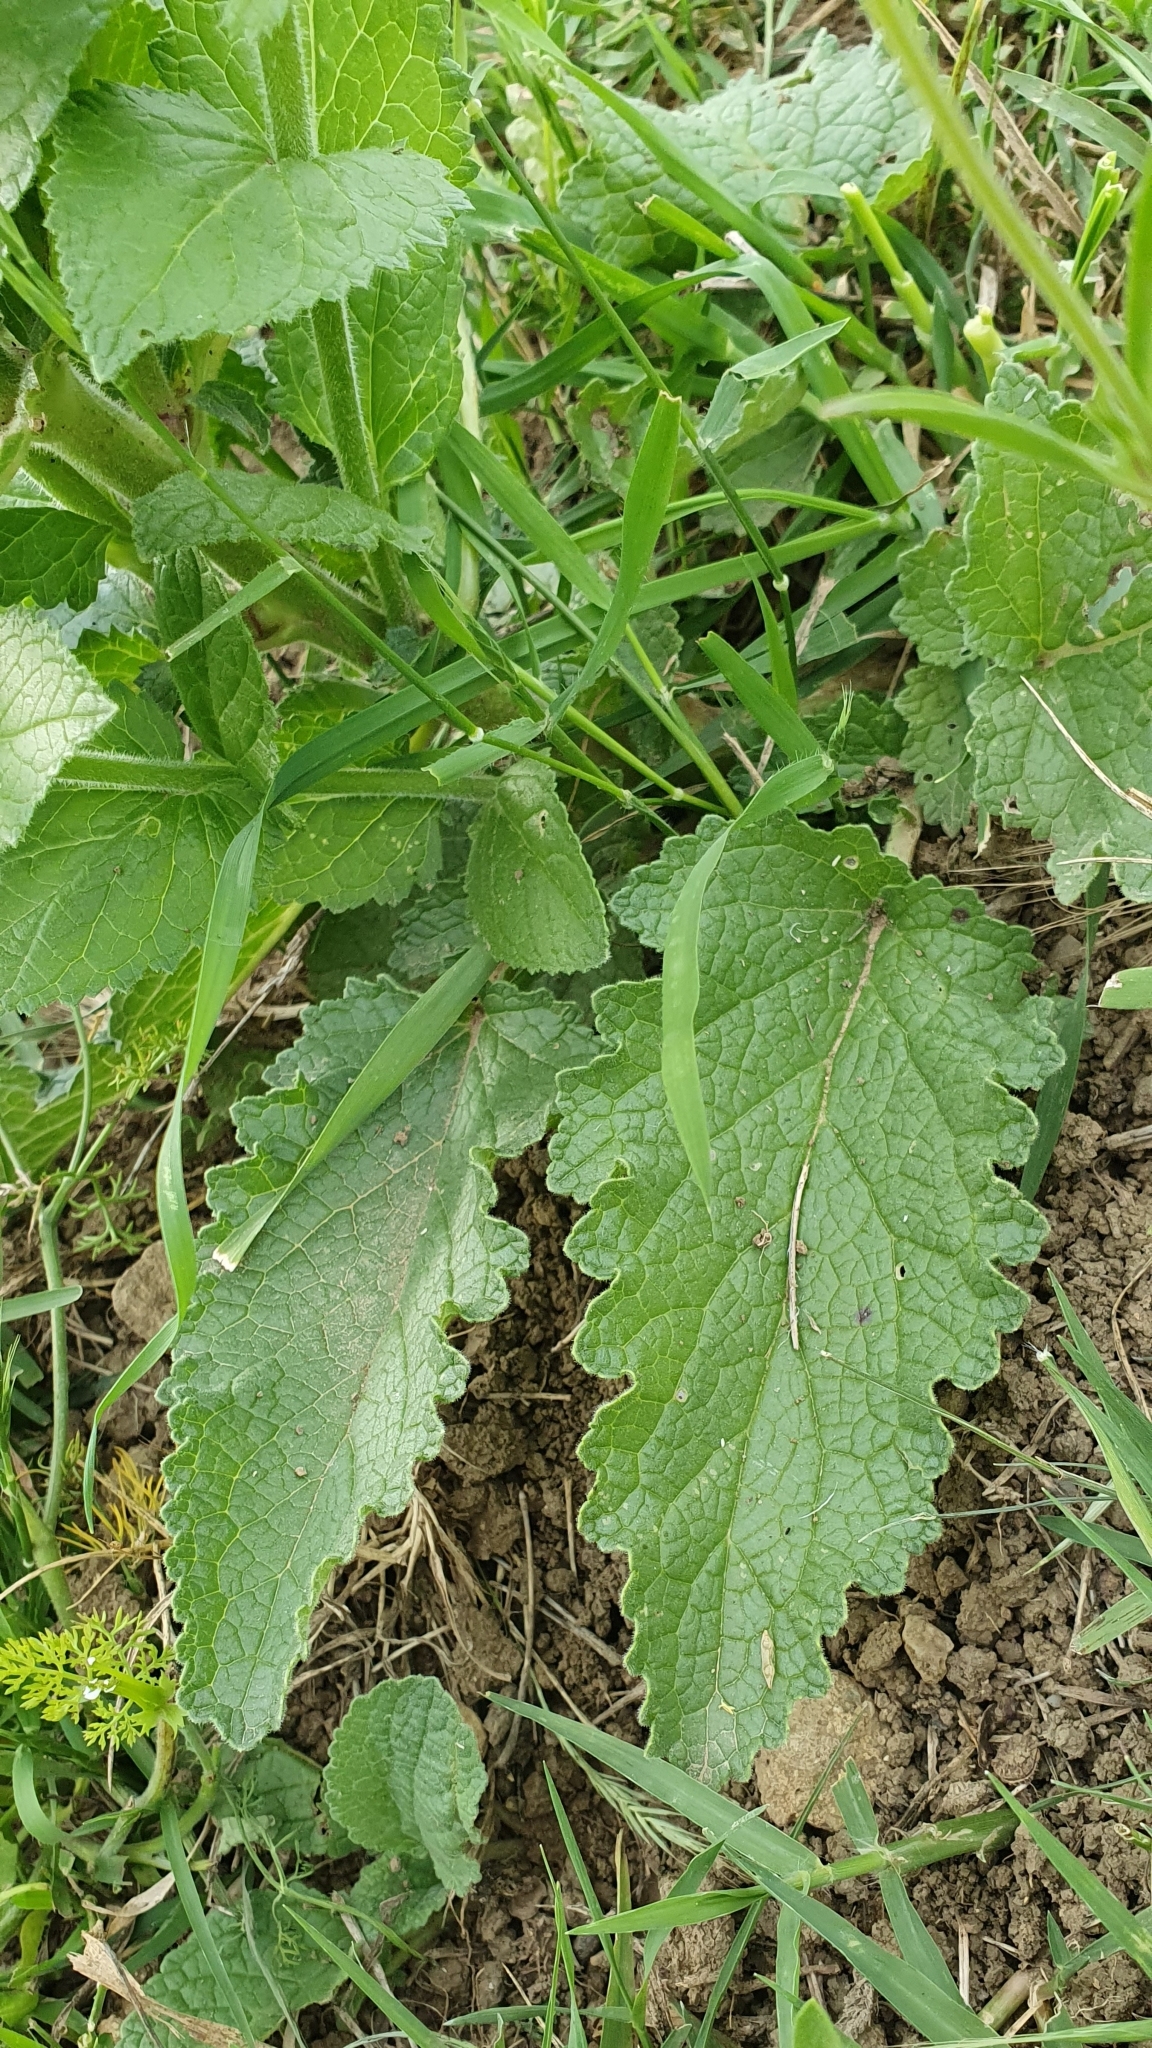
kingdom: Plantae
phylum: Tracheophyta
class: Magnoliopsida
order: Lamiales
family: Scrophulariaceae
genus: Verbascum
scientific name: Verbascum creticum
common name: Cretan mullein
